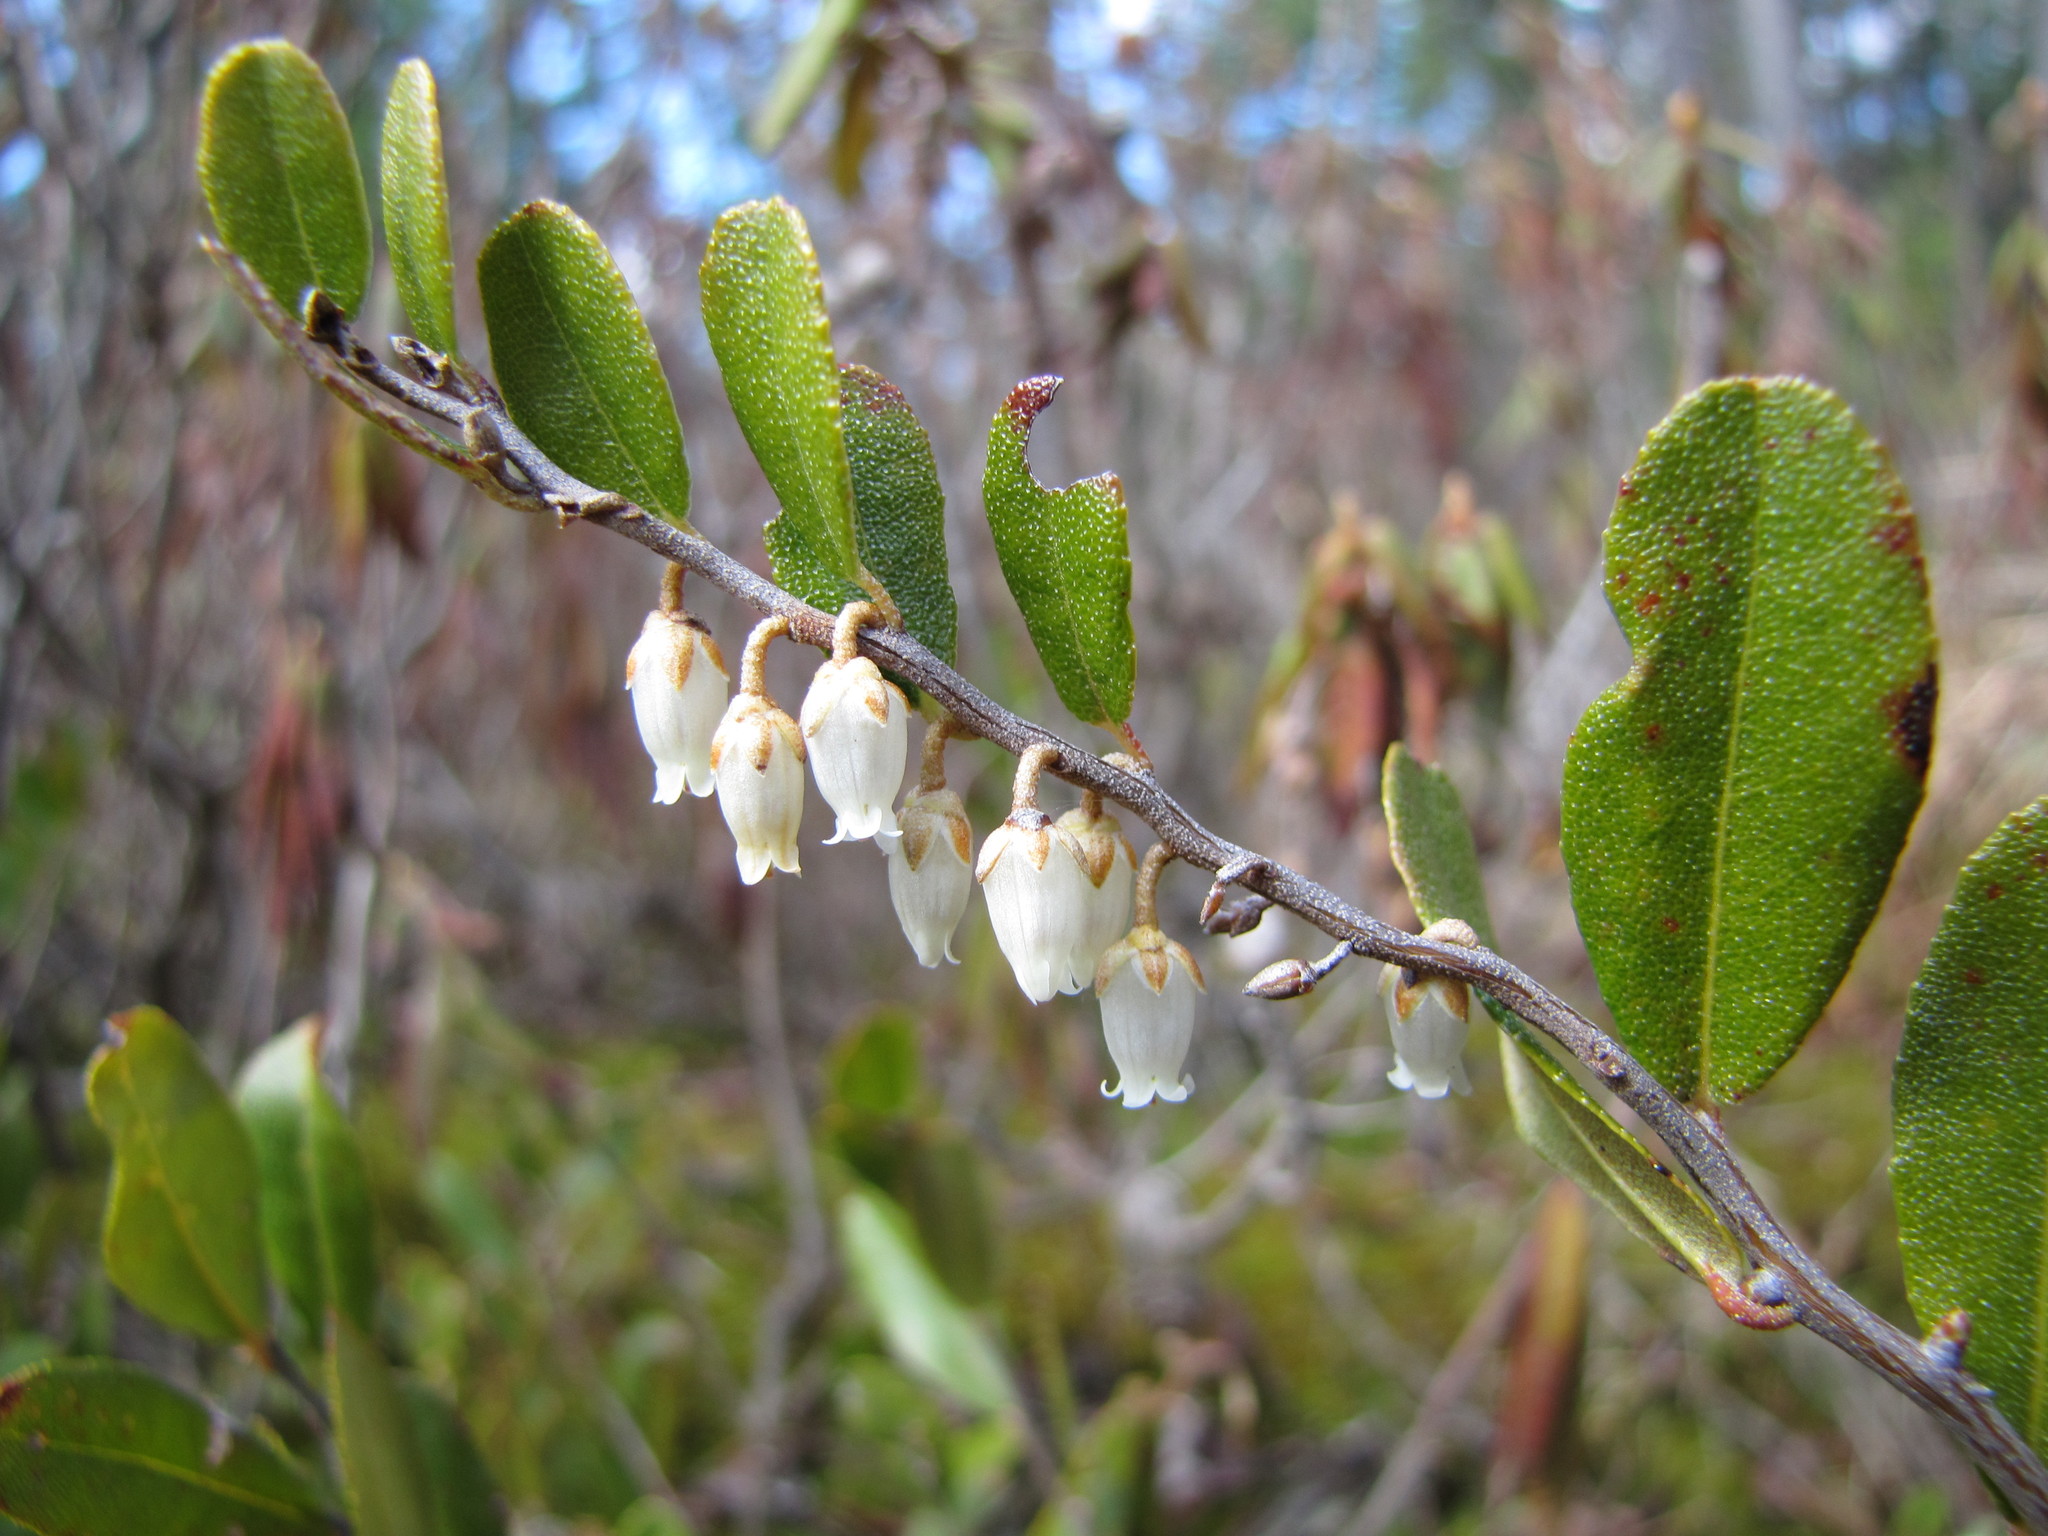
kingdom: Plantae
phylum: Tracheophyta
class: Magnoliopsida
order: Ericales
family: Ericaceae
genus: Chamaedaphne
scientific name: Chamaedaphne calyculata
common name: Leatherleaf
